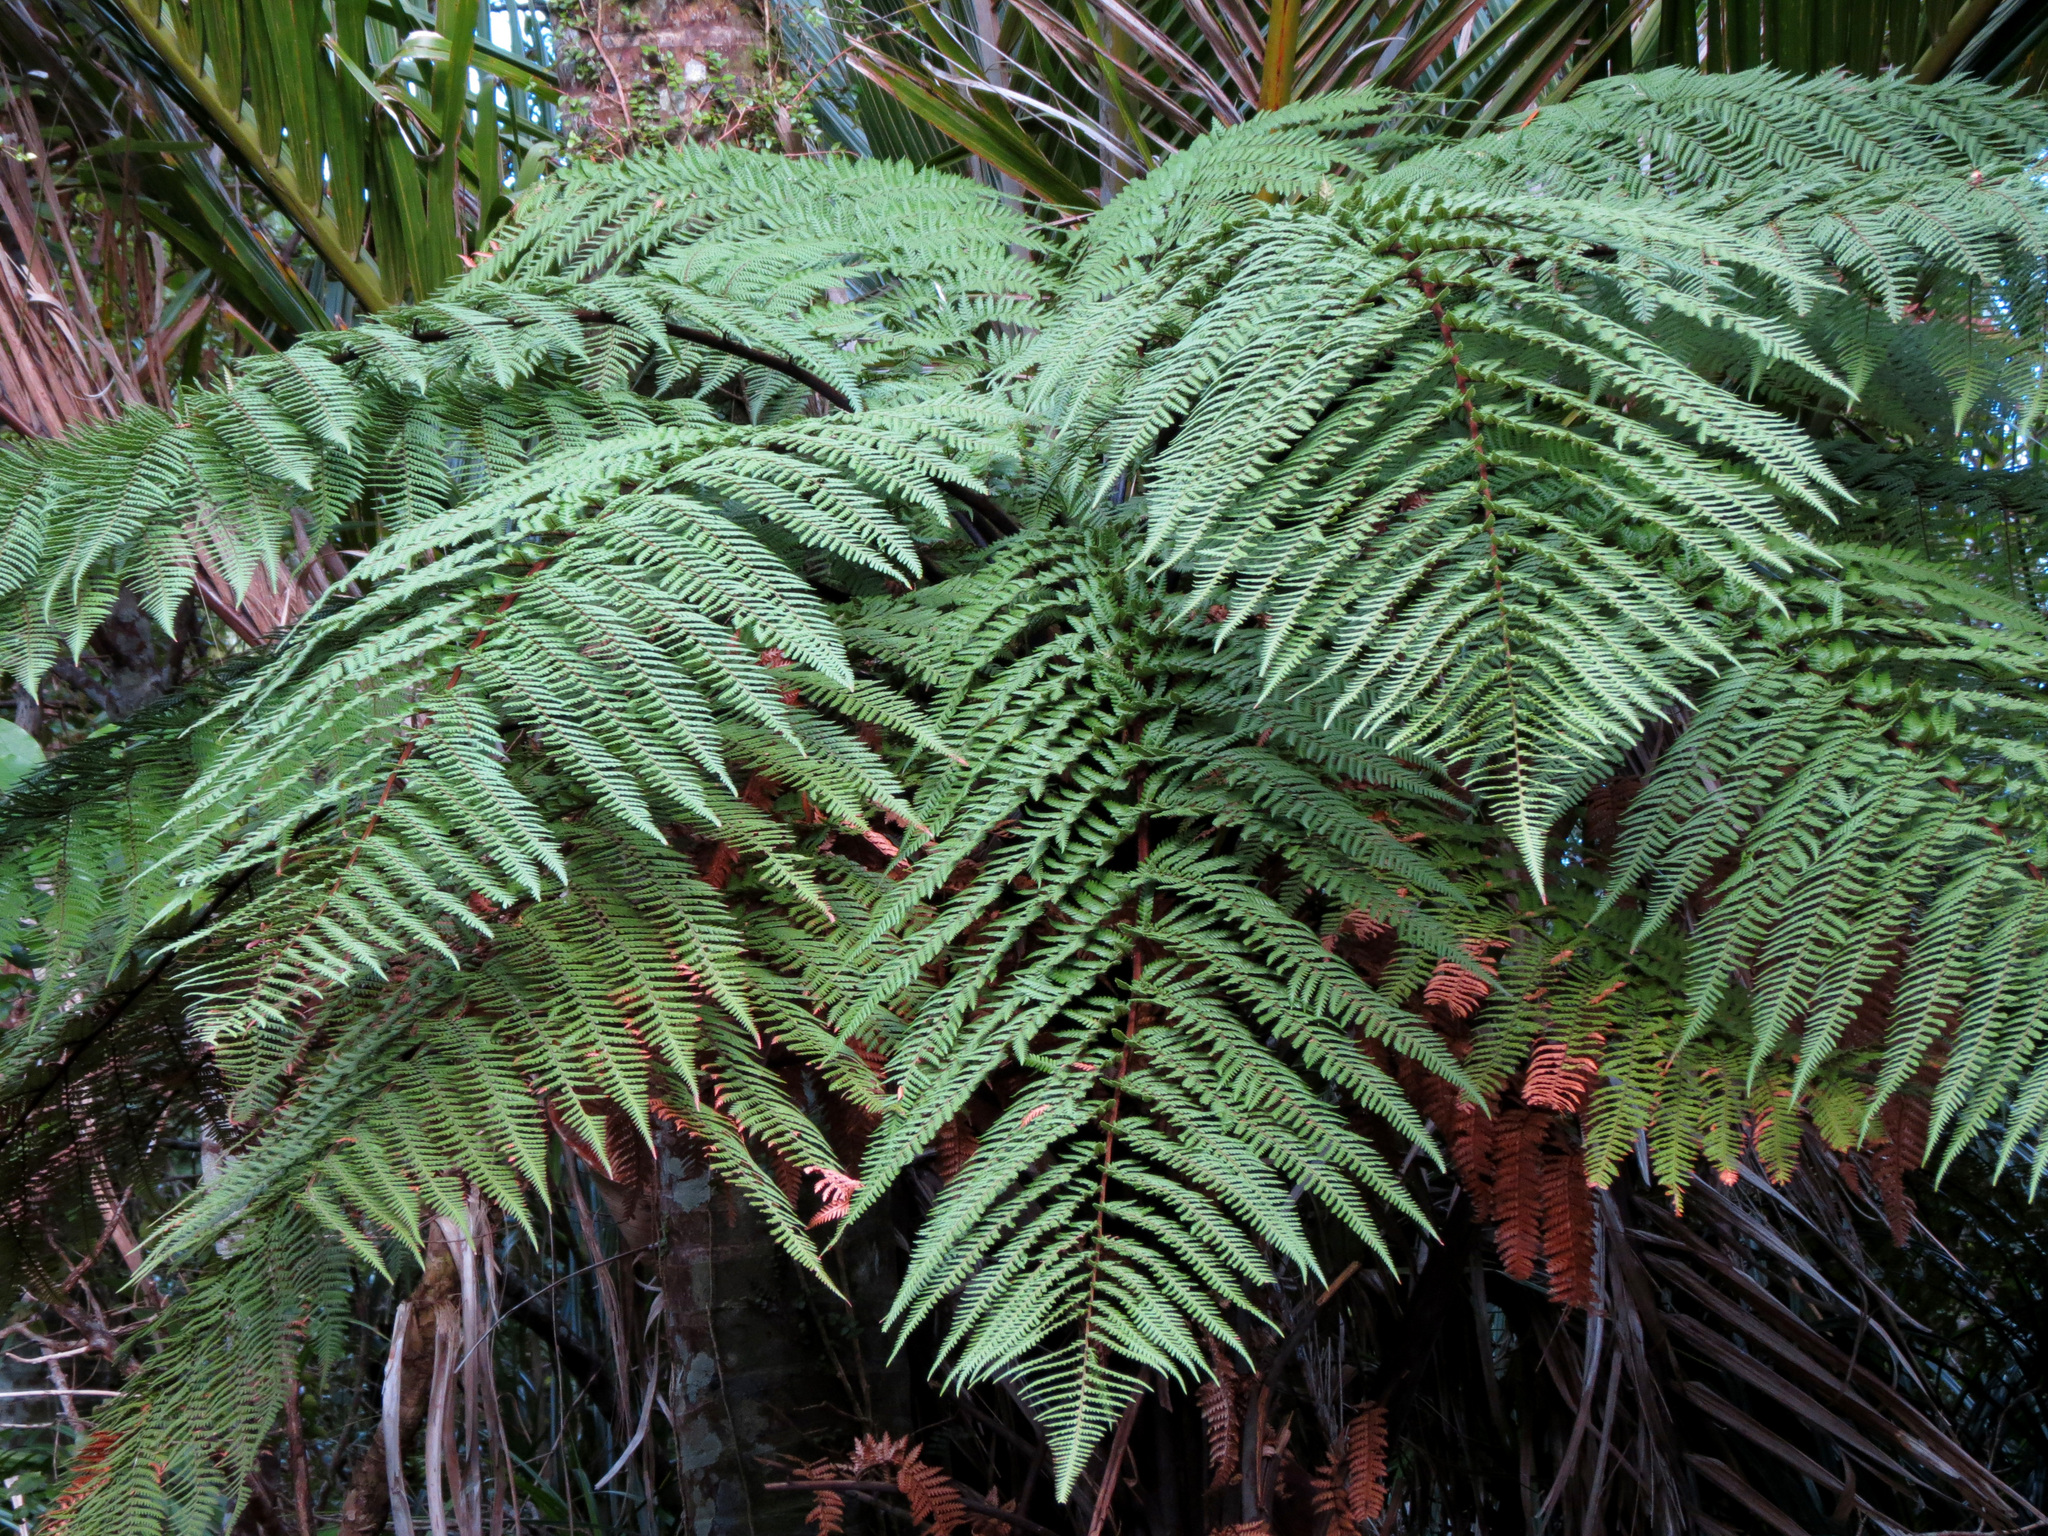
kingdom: Plantae
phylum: Tracheophyta
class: Polypodiopsida
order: Cyatheales
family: Dicksoniaceae
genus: Dicksonia
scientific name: Dicksonia squarrosa
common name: Hard treefern
